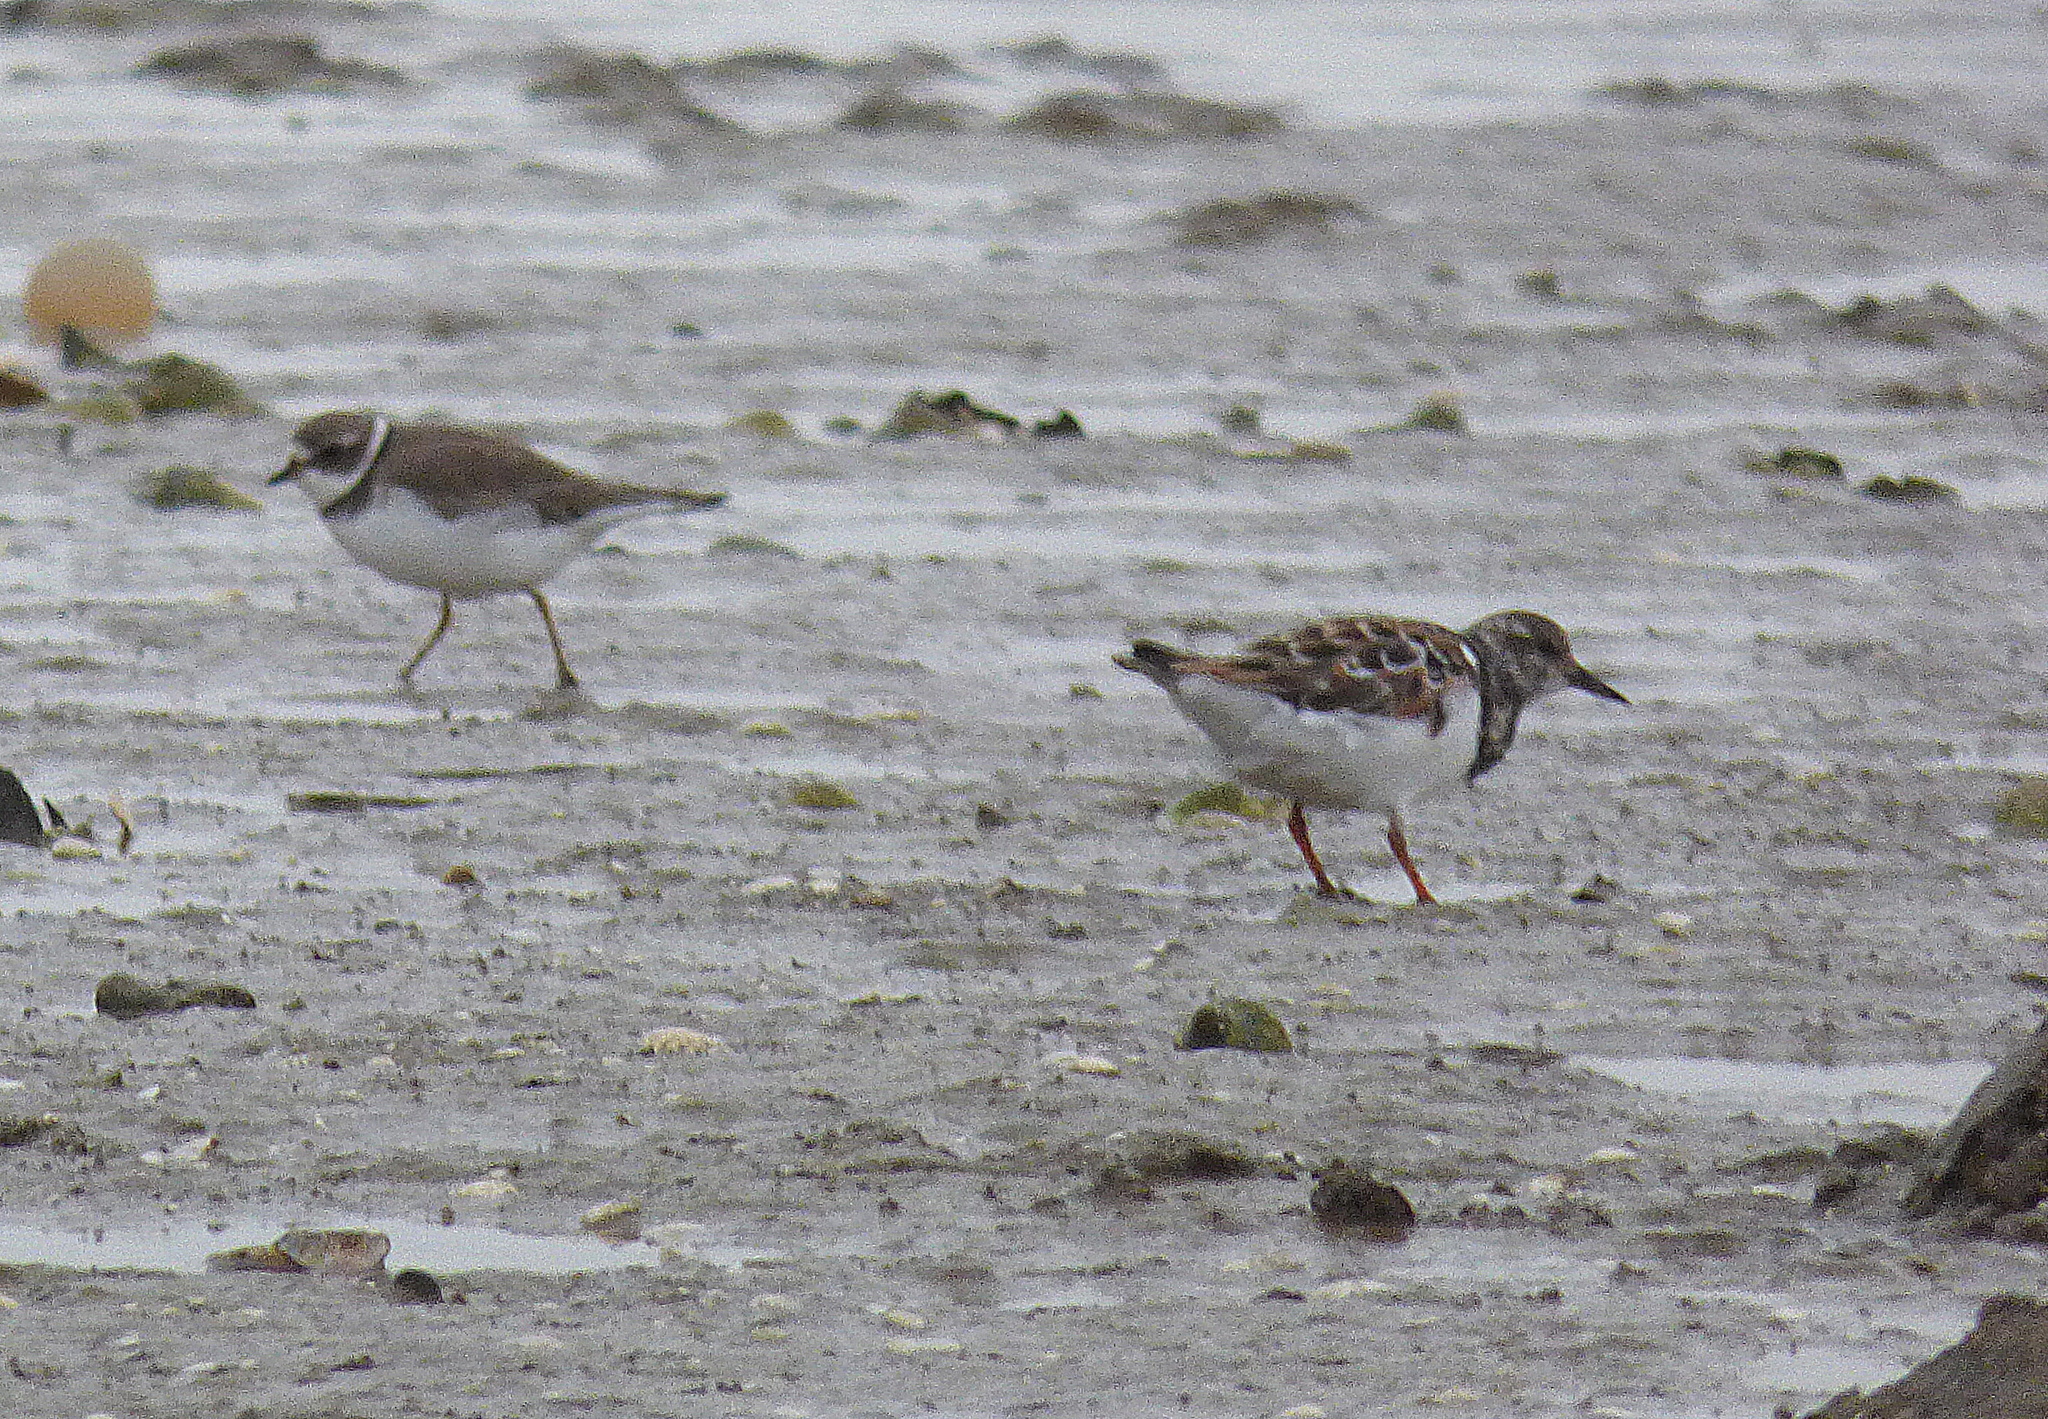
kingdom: Animalia
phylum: Chordata
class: Aves
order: Charadriiformes
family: Scolopacidae
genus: Arenaria
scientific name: Arenaria interpres
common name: Ruddy turnstone
